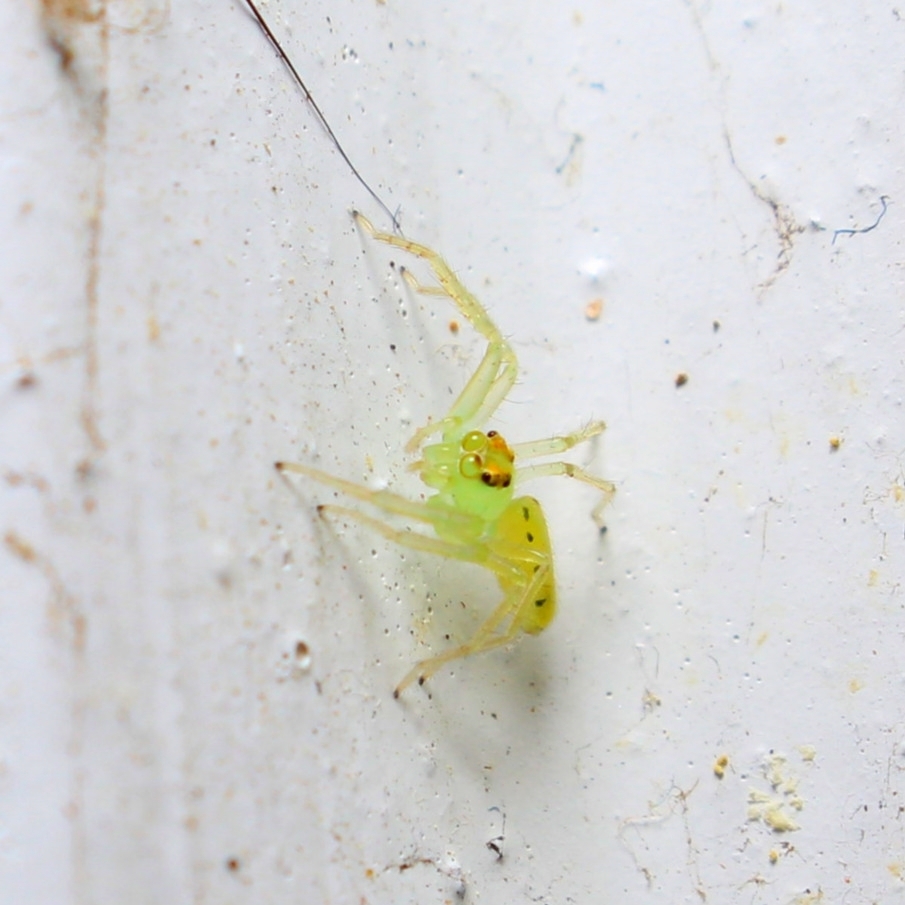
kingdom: Animalia
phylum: Arthropoda
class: Arachnida
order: Araneae
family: Salticidae
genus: Lyssomanes
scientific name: Lyssomanes viridis
